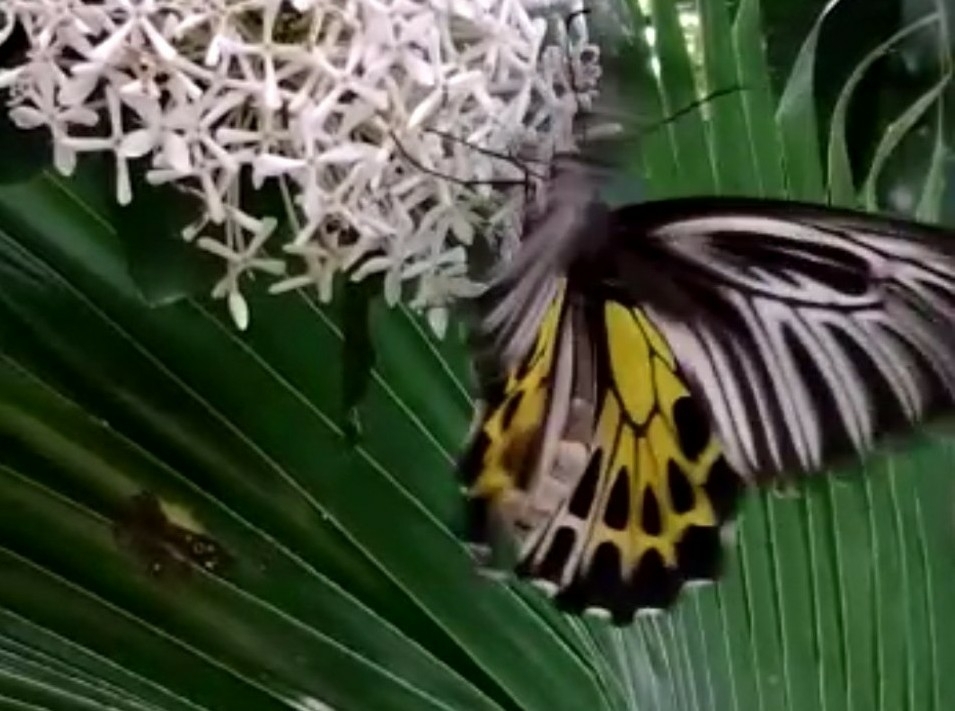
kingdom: Animalia
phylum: Arthropoda
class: Insecta
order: Lepidoptera
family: Papilionidae
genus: Troides
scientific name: Troides minos
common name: Malabar birdwing
